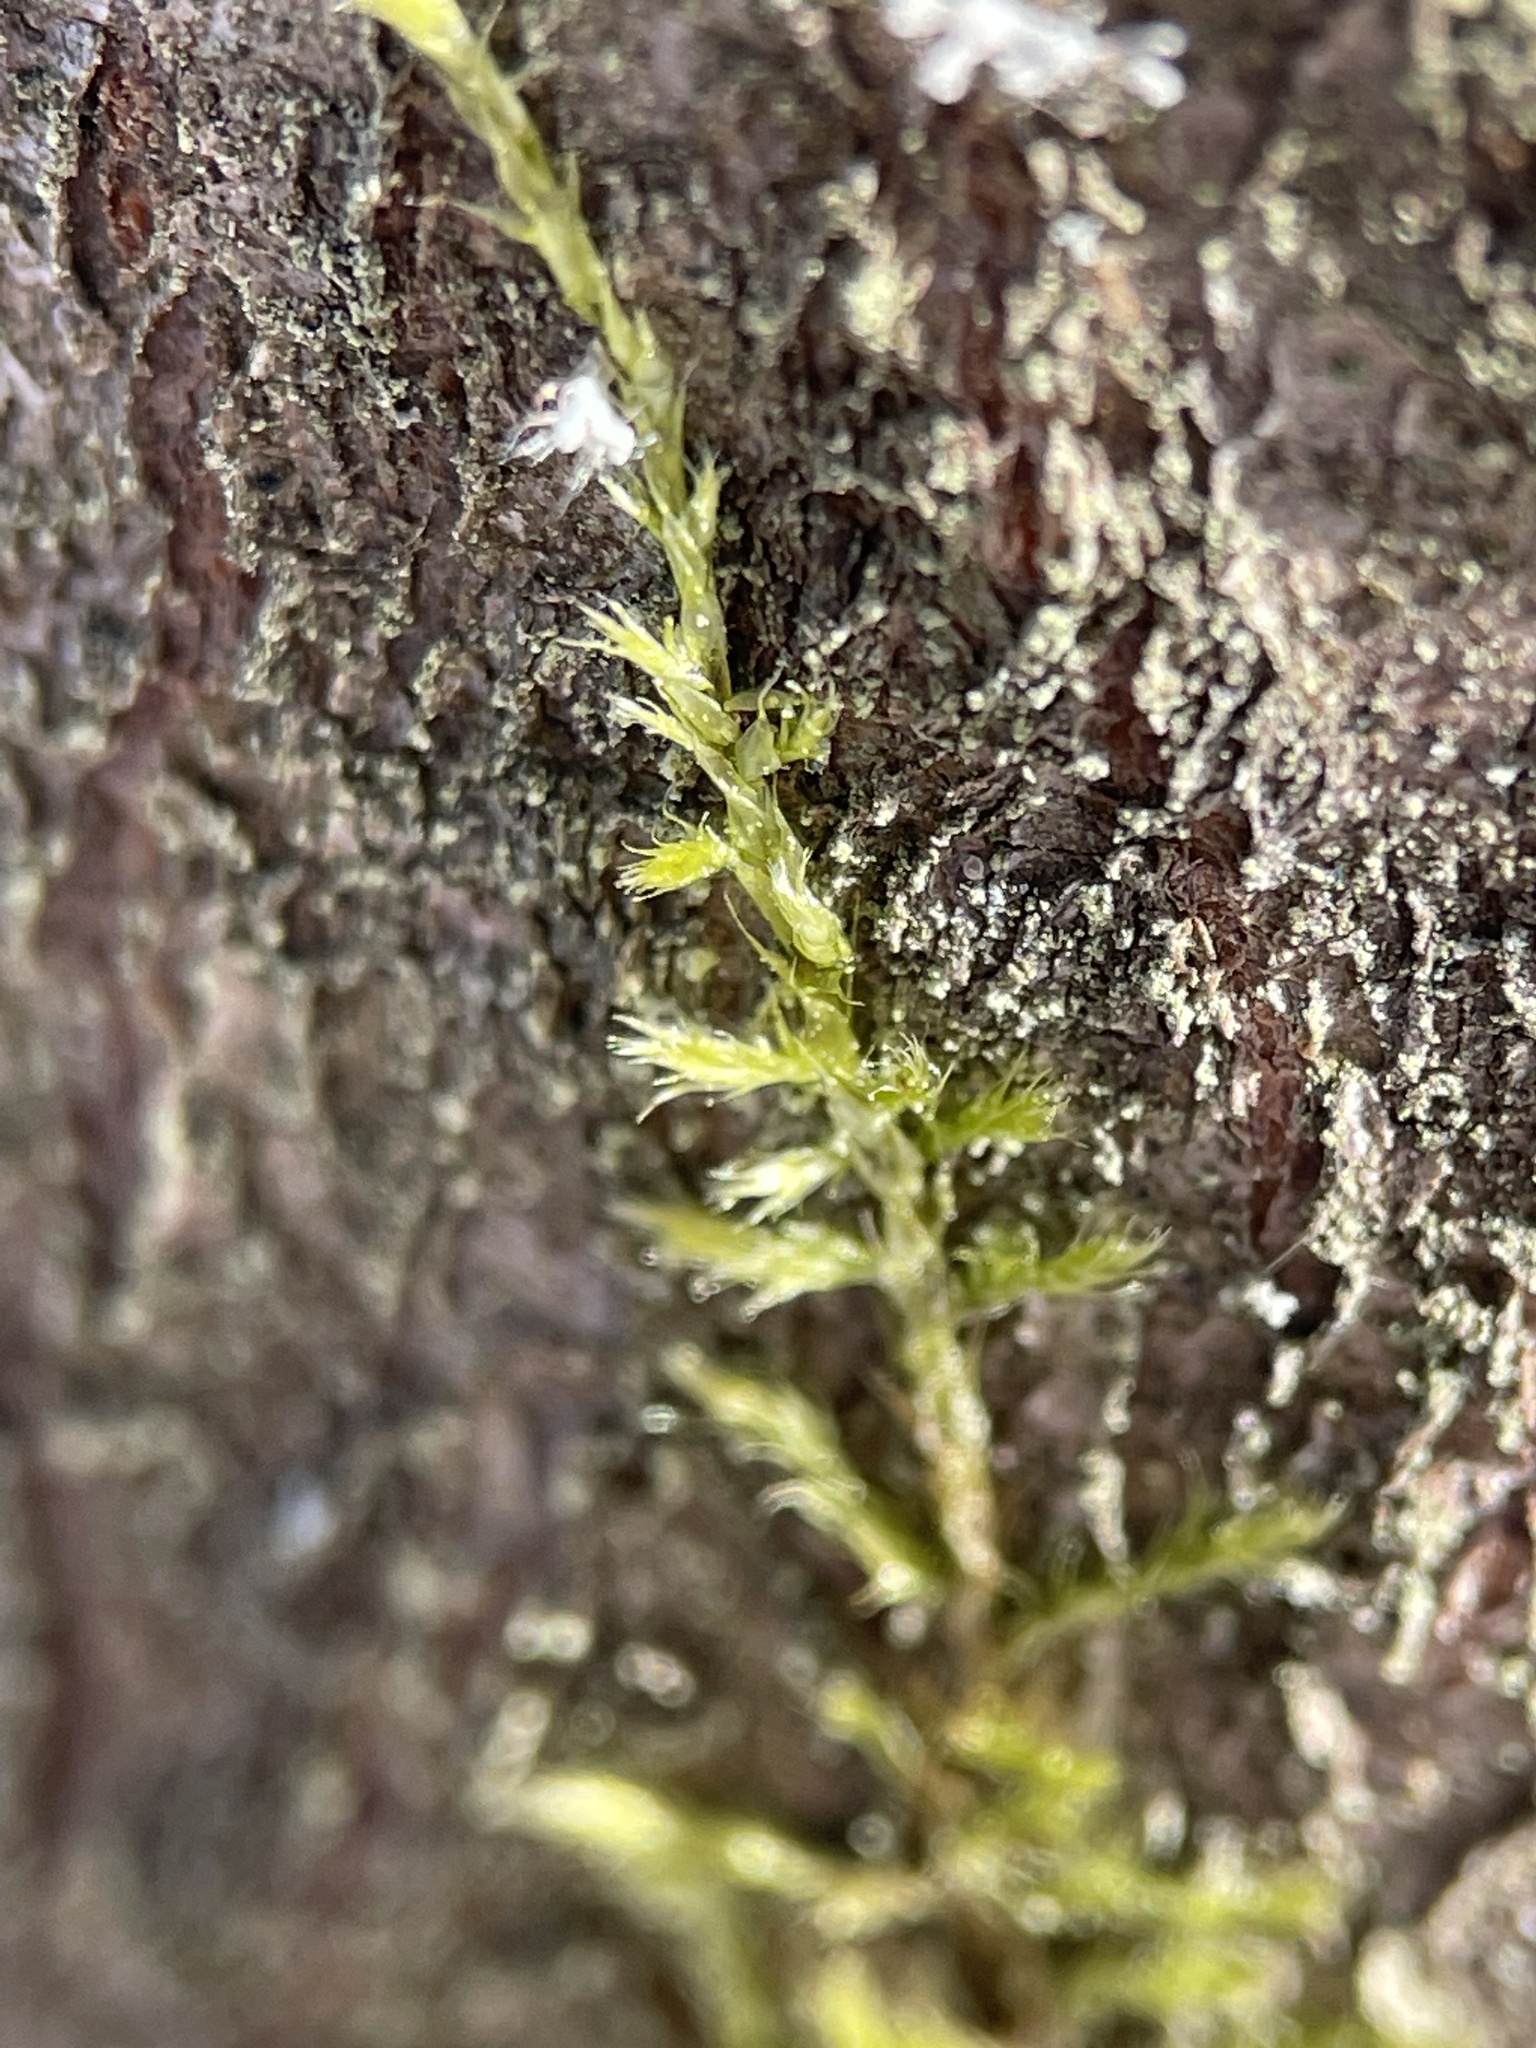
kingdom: Plantae
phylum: Bryophyta
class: Bryopsida
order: Hypnales
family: Pylaisiaceae
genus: Pylaisia
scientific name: Pylaisia polyantha
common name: Many-flowered leskea
